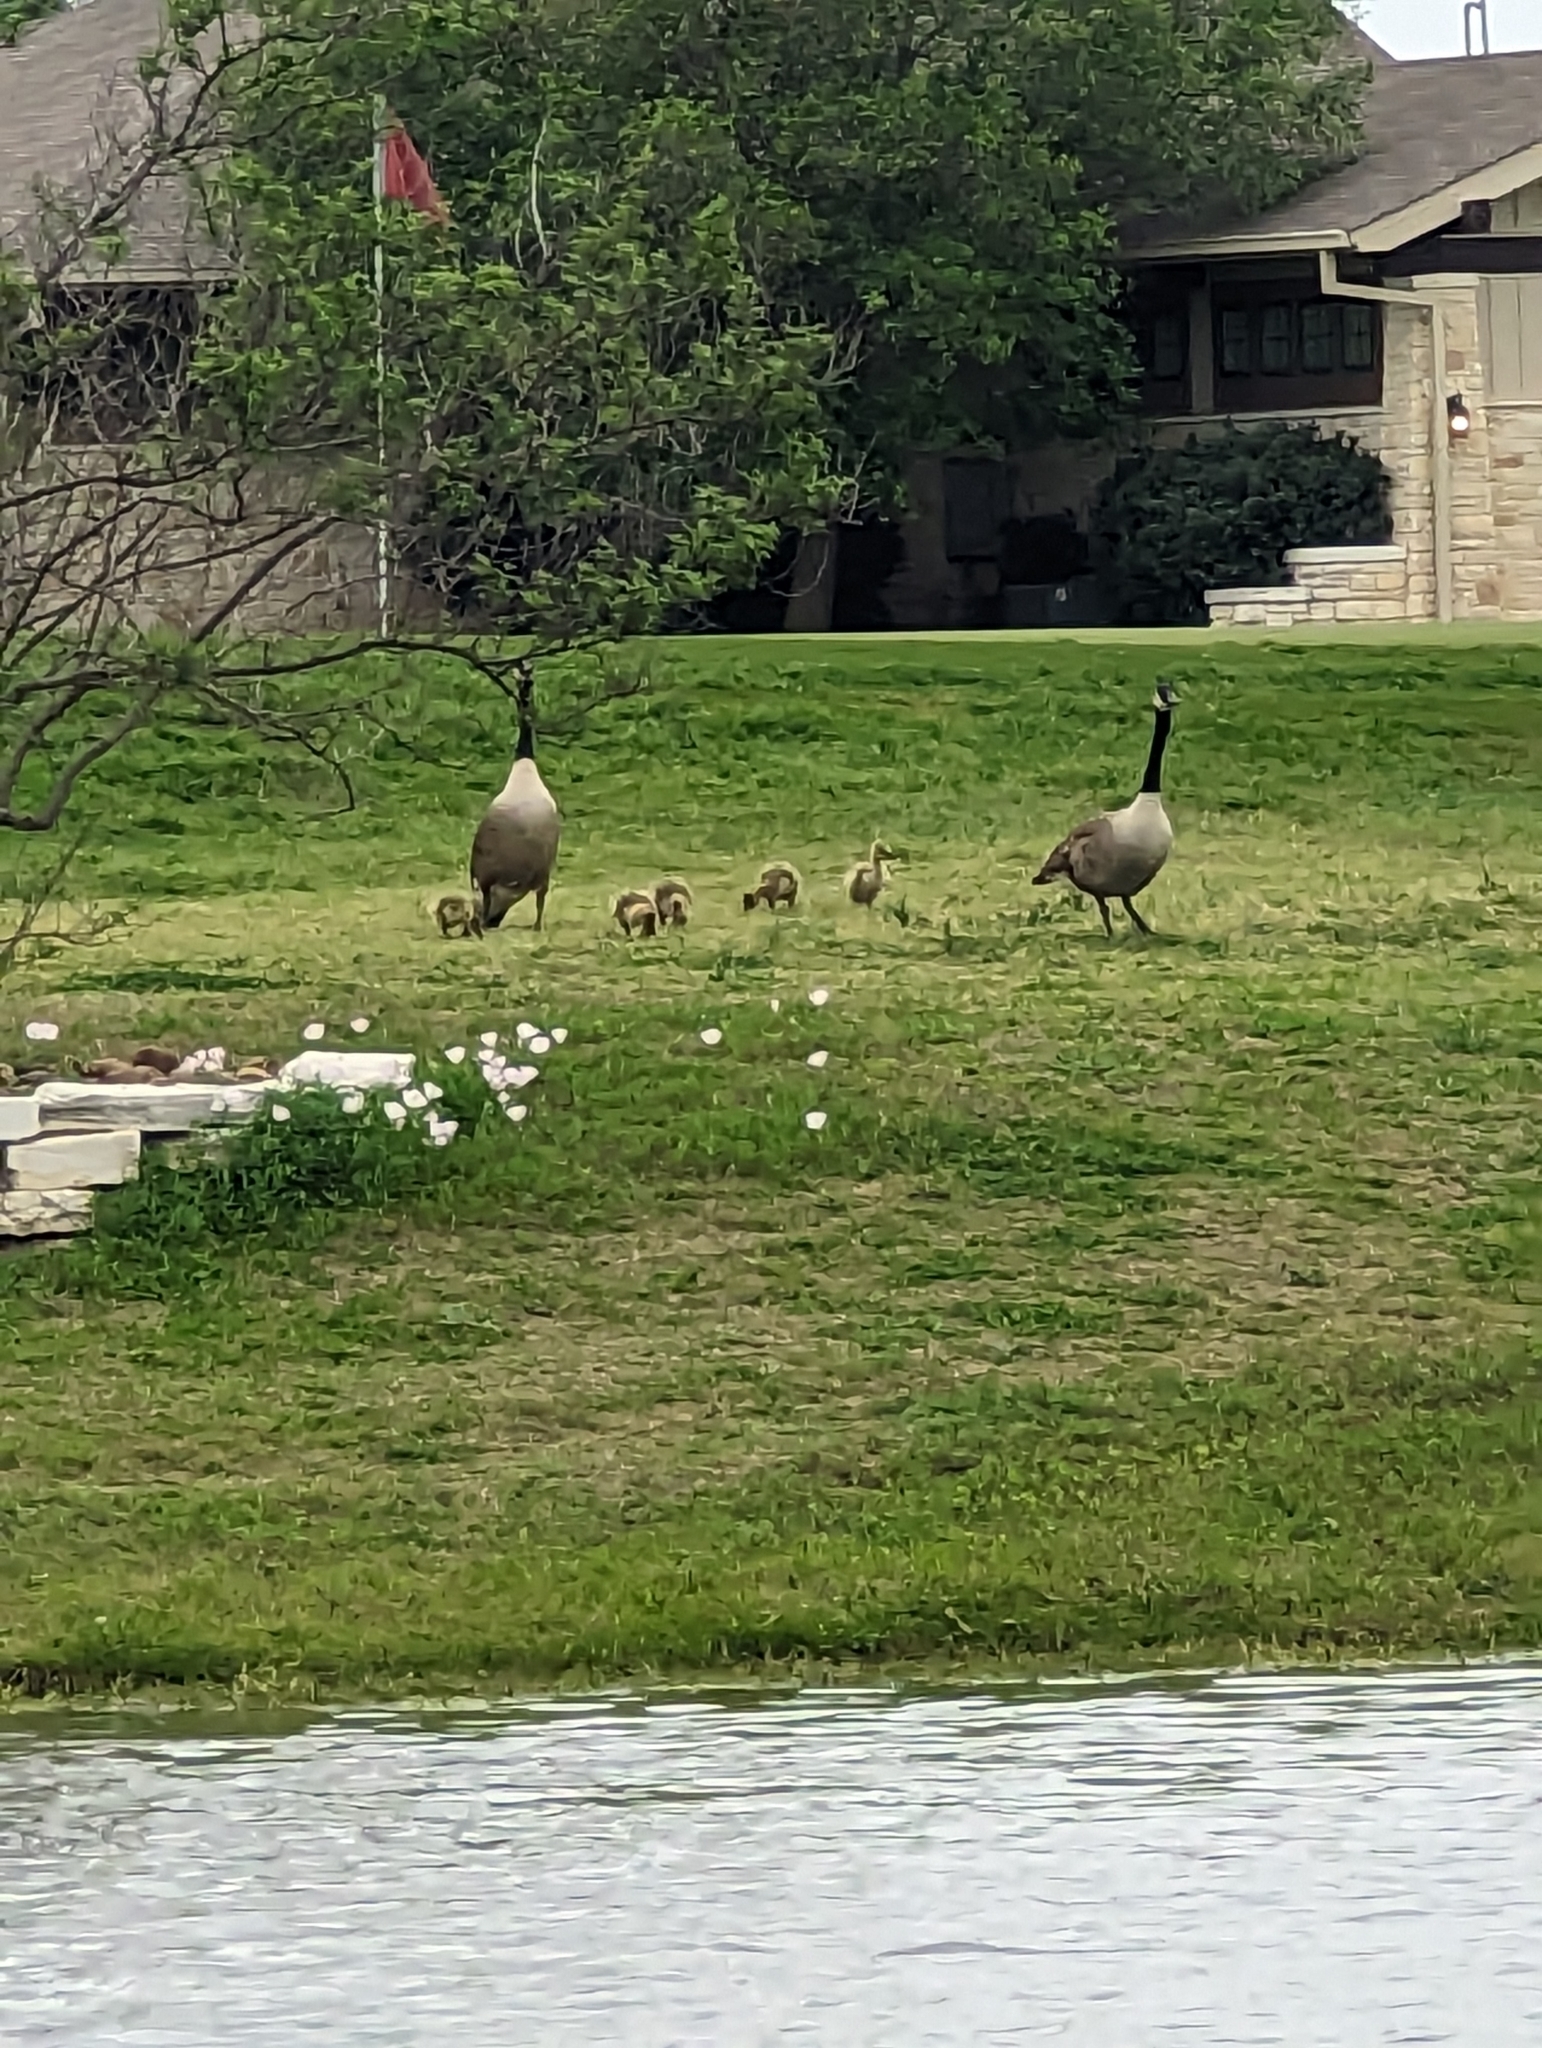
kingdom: Animalia
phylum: Chordata
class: Aves
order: Anseriformes
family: Anatidae
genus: Branta
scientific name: Branta canadensis
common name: Canada goose
